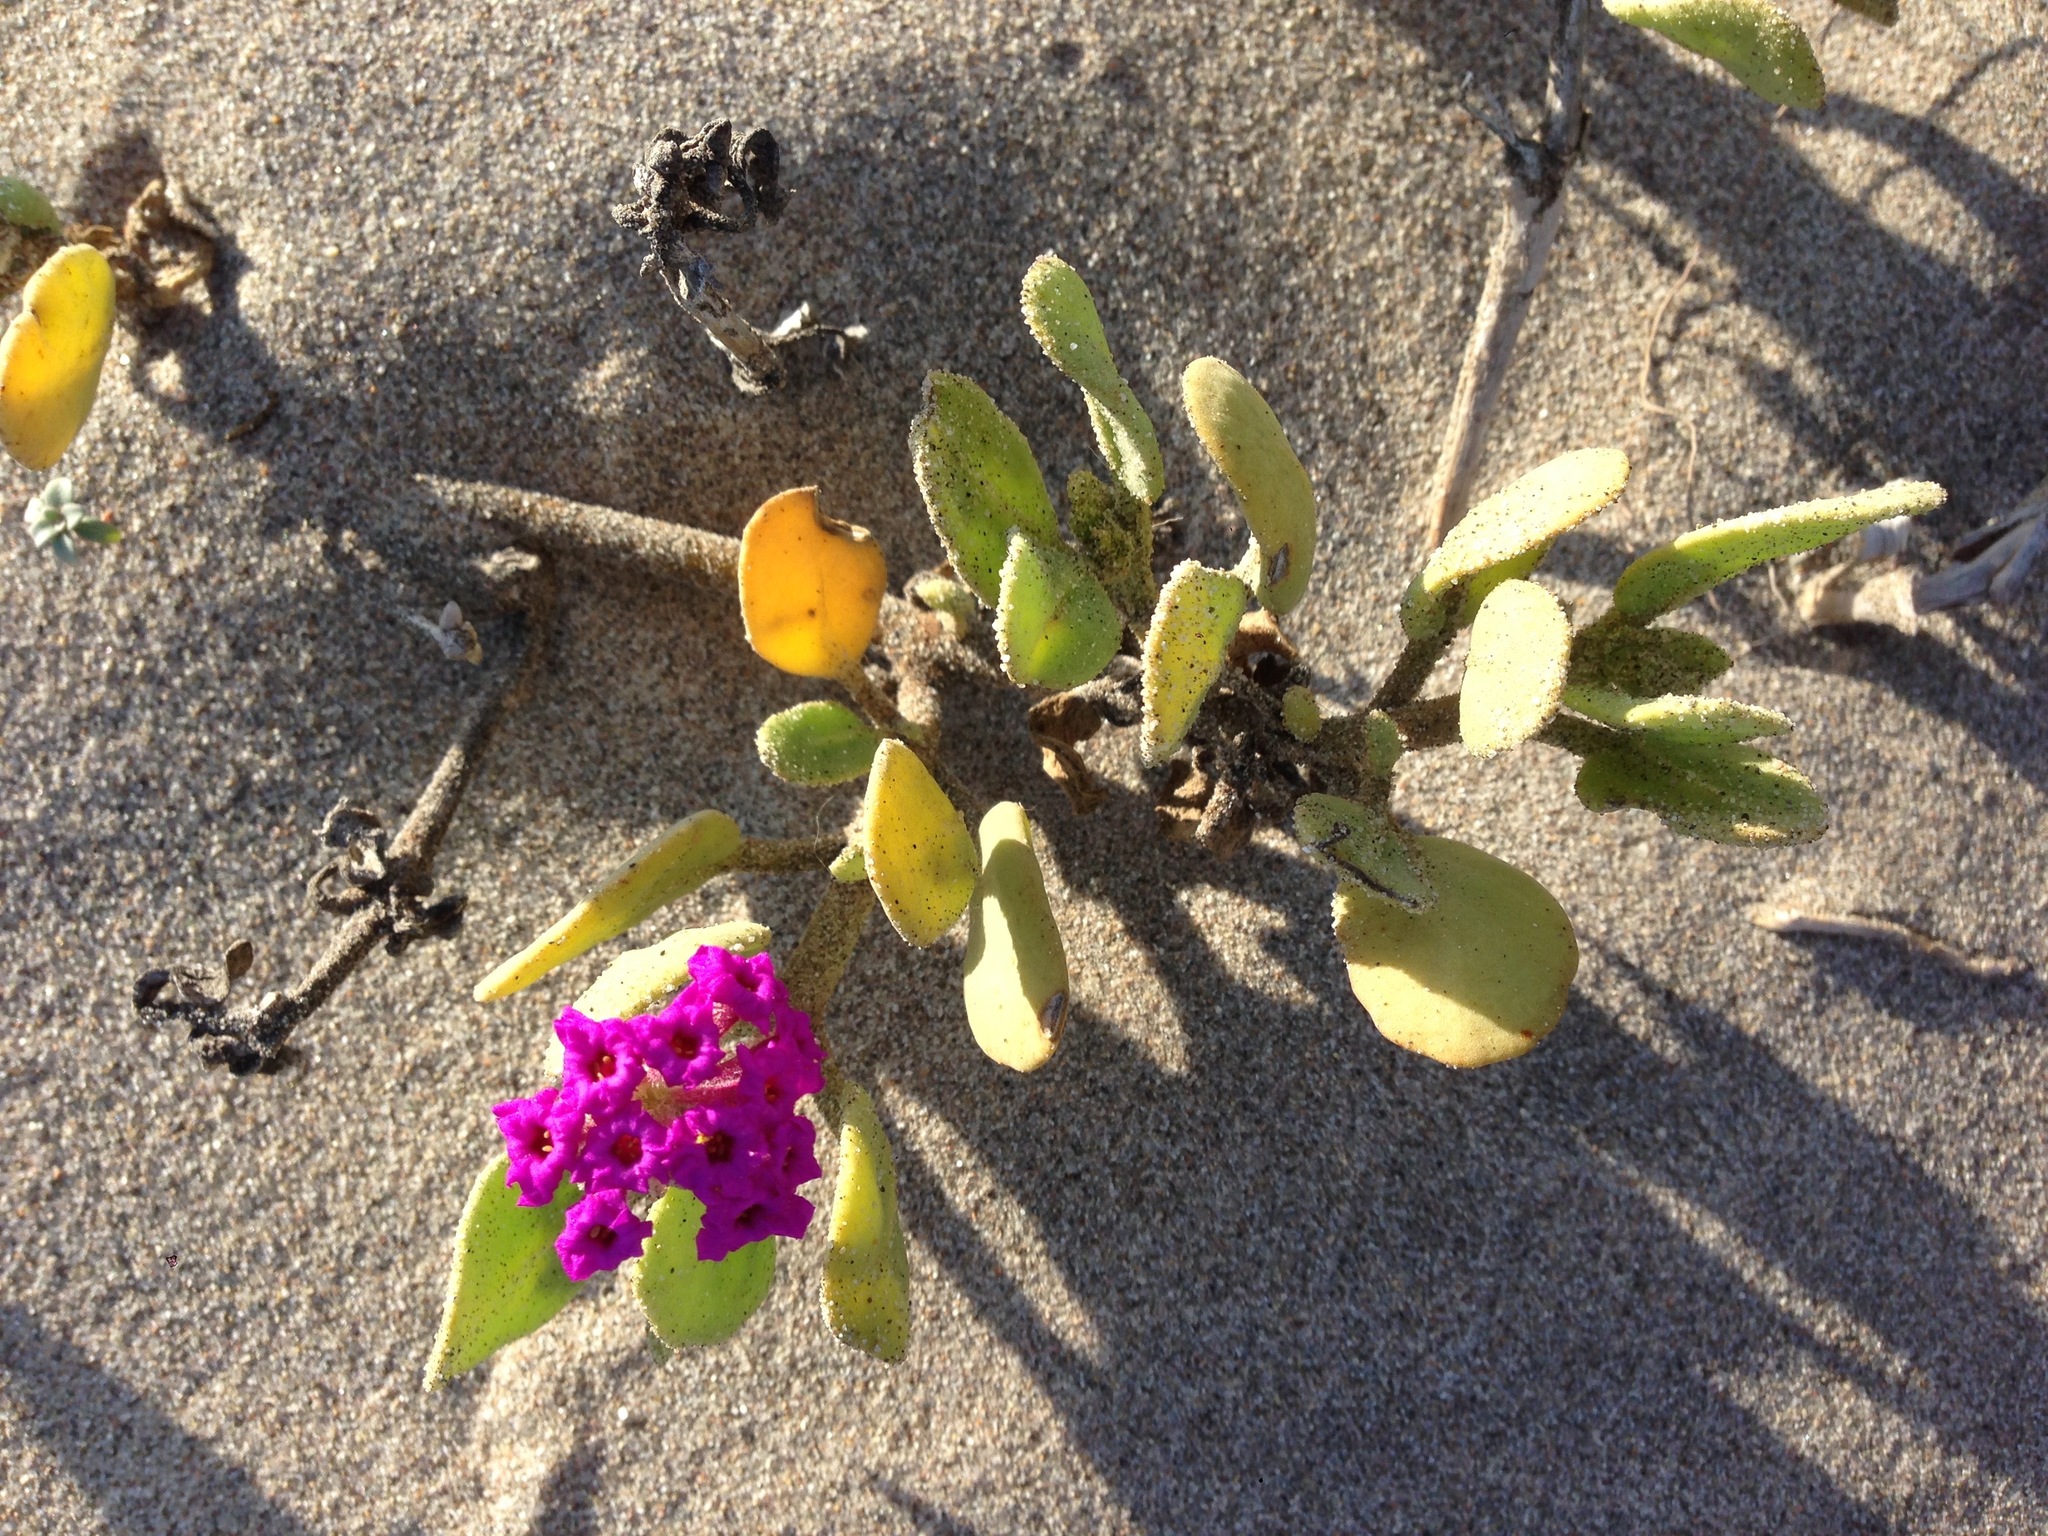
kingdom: Plantae
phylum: Tracheophyta
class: Magnoliopsida
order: Caryophyllales
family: Nyctaginaceae
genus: Abronia
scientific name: Abronia maritima
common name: Red sand-verbena
